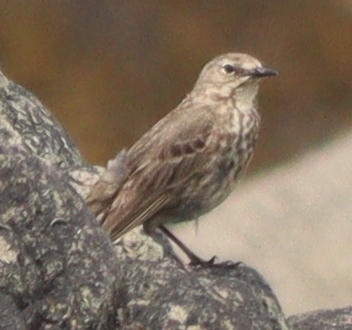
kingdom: Animalia
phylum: Chordata
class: Aves
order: Passeriformes
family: Motacillidae
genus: Anthus
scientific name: Anthus petrosus
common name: Eurasian rock pipit
